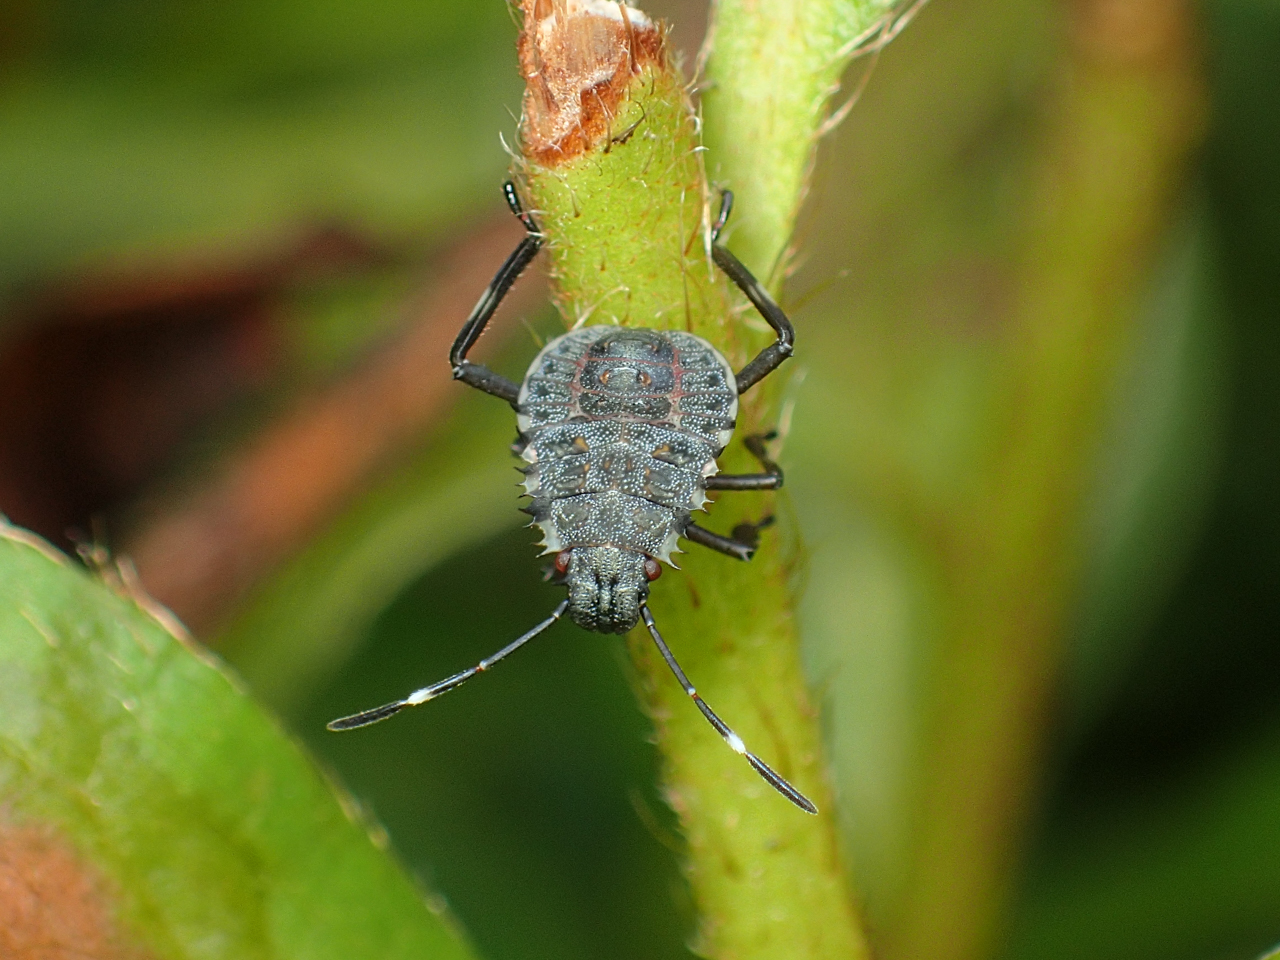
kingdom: Animalia
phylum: Arthropoda
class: Insecta
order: Hemiptera
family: Pentatomidae
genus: Halyomorpha
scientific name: Halyomorpha halys
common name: Brown marmorated stink bug
